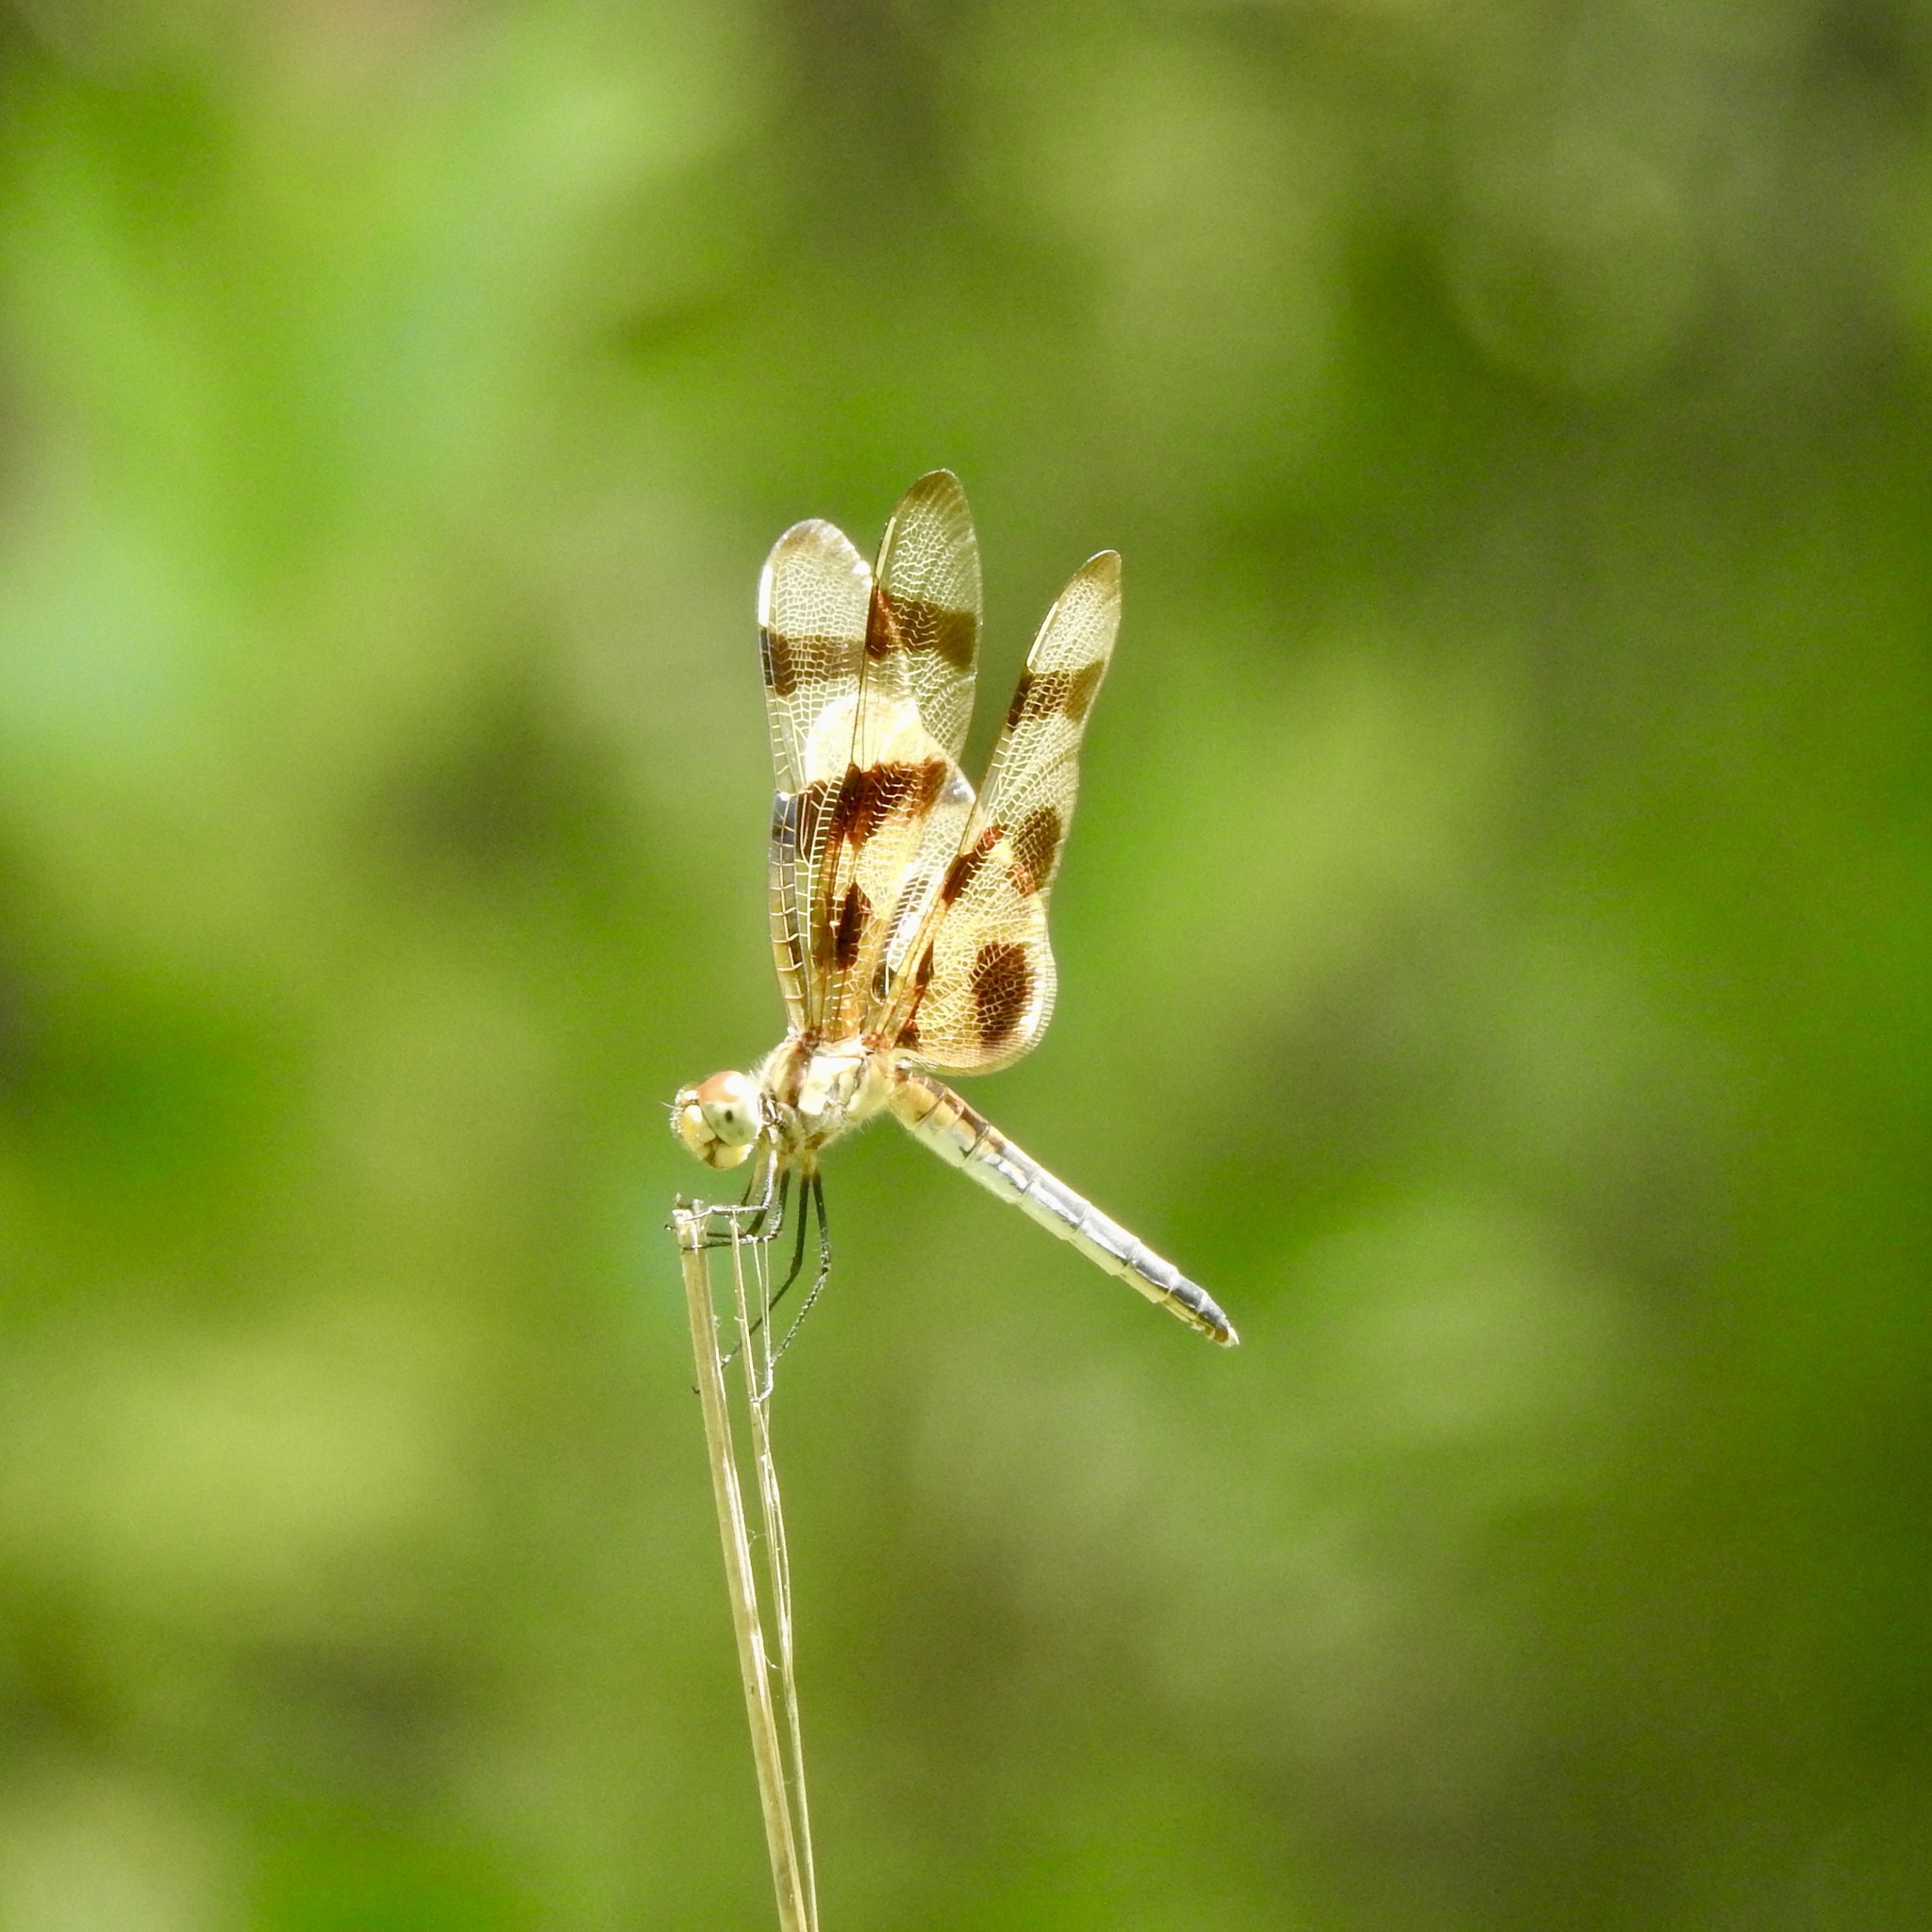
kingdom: Animalia
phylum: Arthropoda
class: Insecta
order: Odonata
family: Libellulidae
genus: Celithemis
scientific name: Celithemis eponina
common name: Halloween pennant
